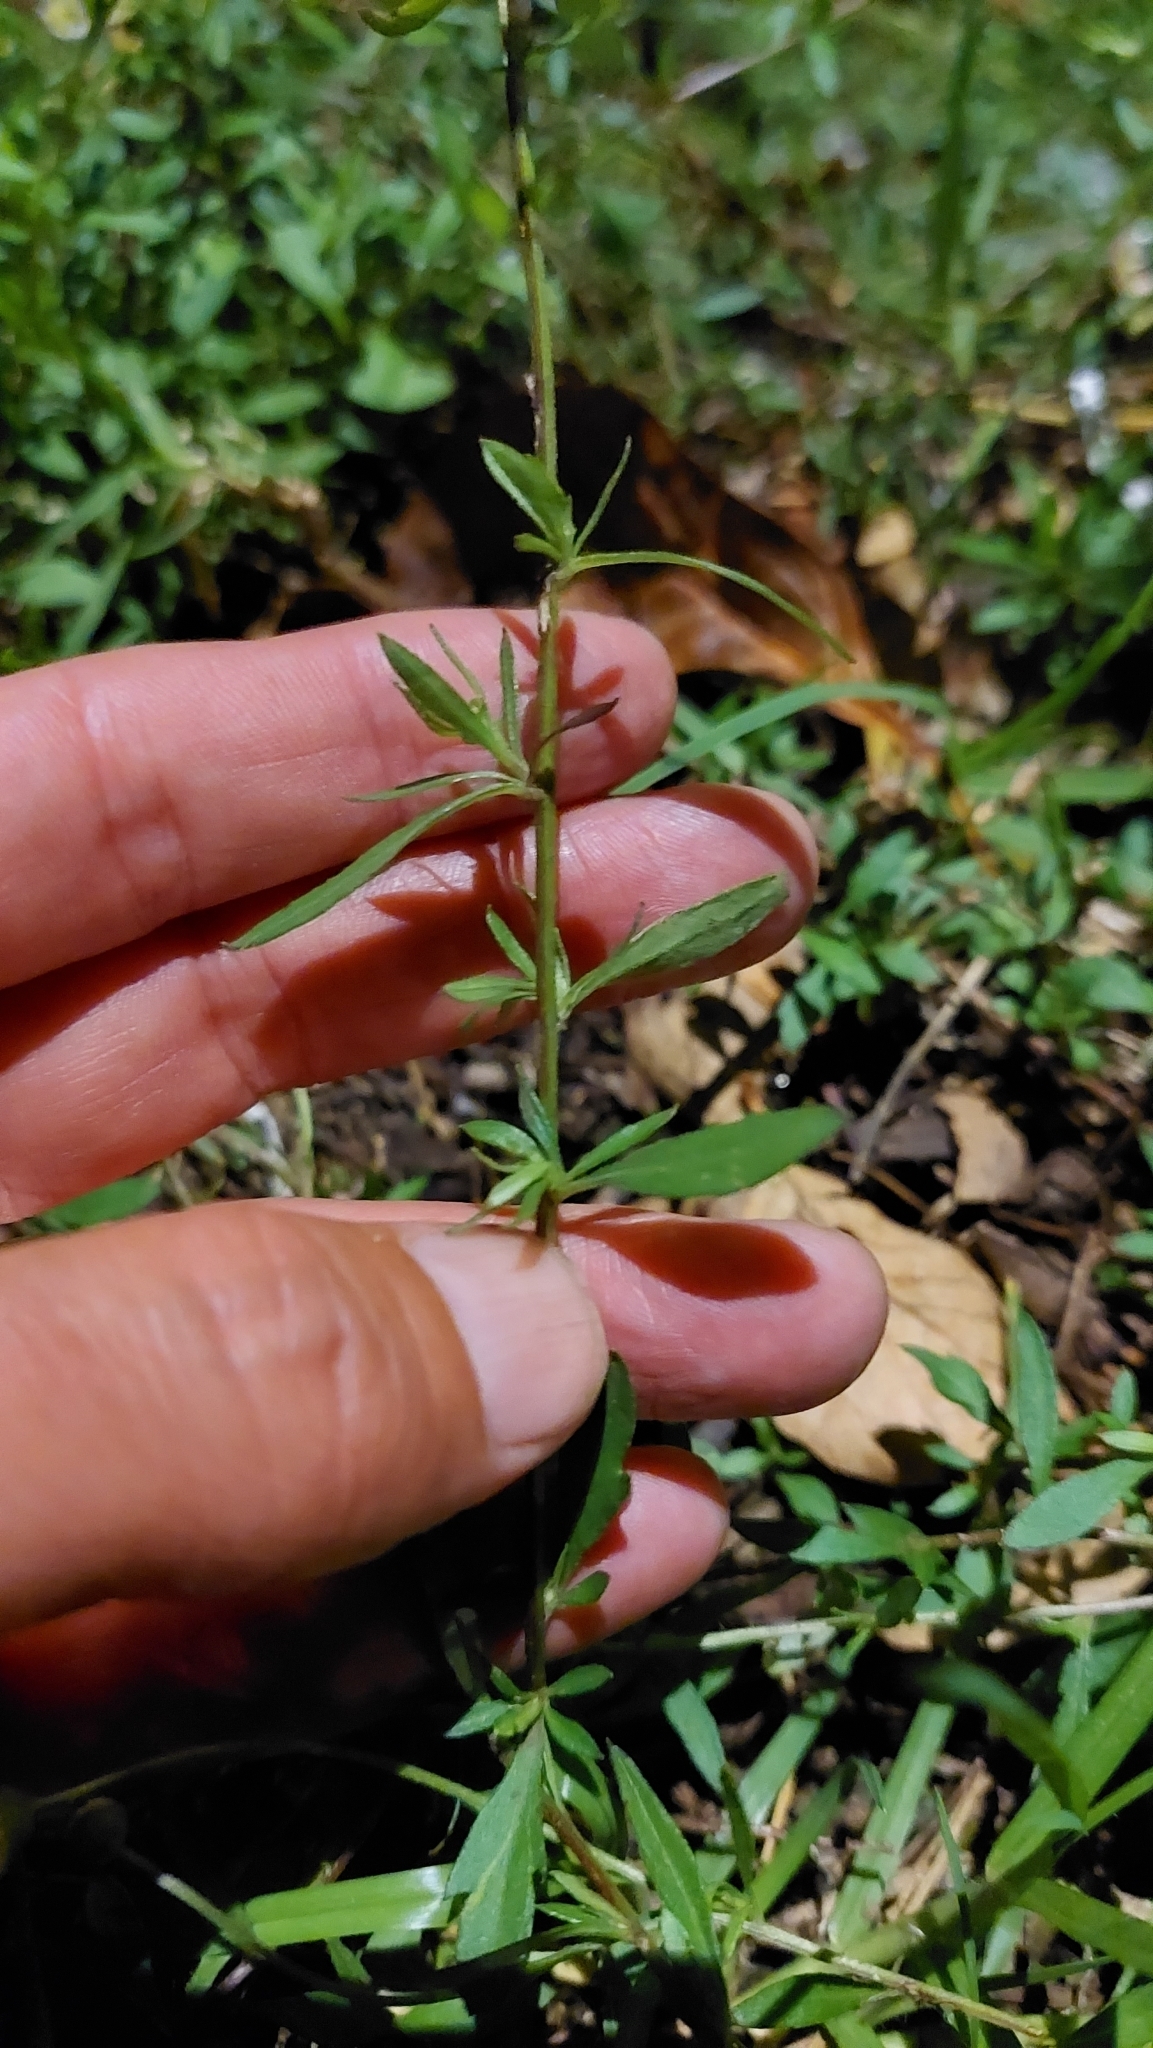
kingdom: Plantae
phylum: Tracheophyta
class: Magnoliopsida
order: Asterales
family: Asteraceae
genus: Erigeron
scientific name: Erigeron karvinskianus
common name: Mexican fleabane
